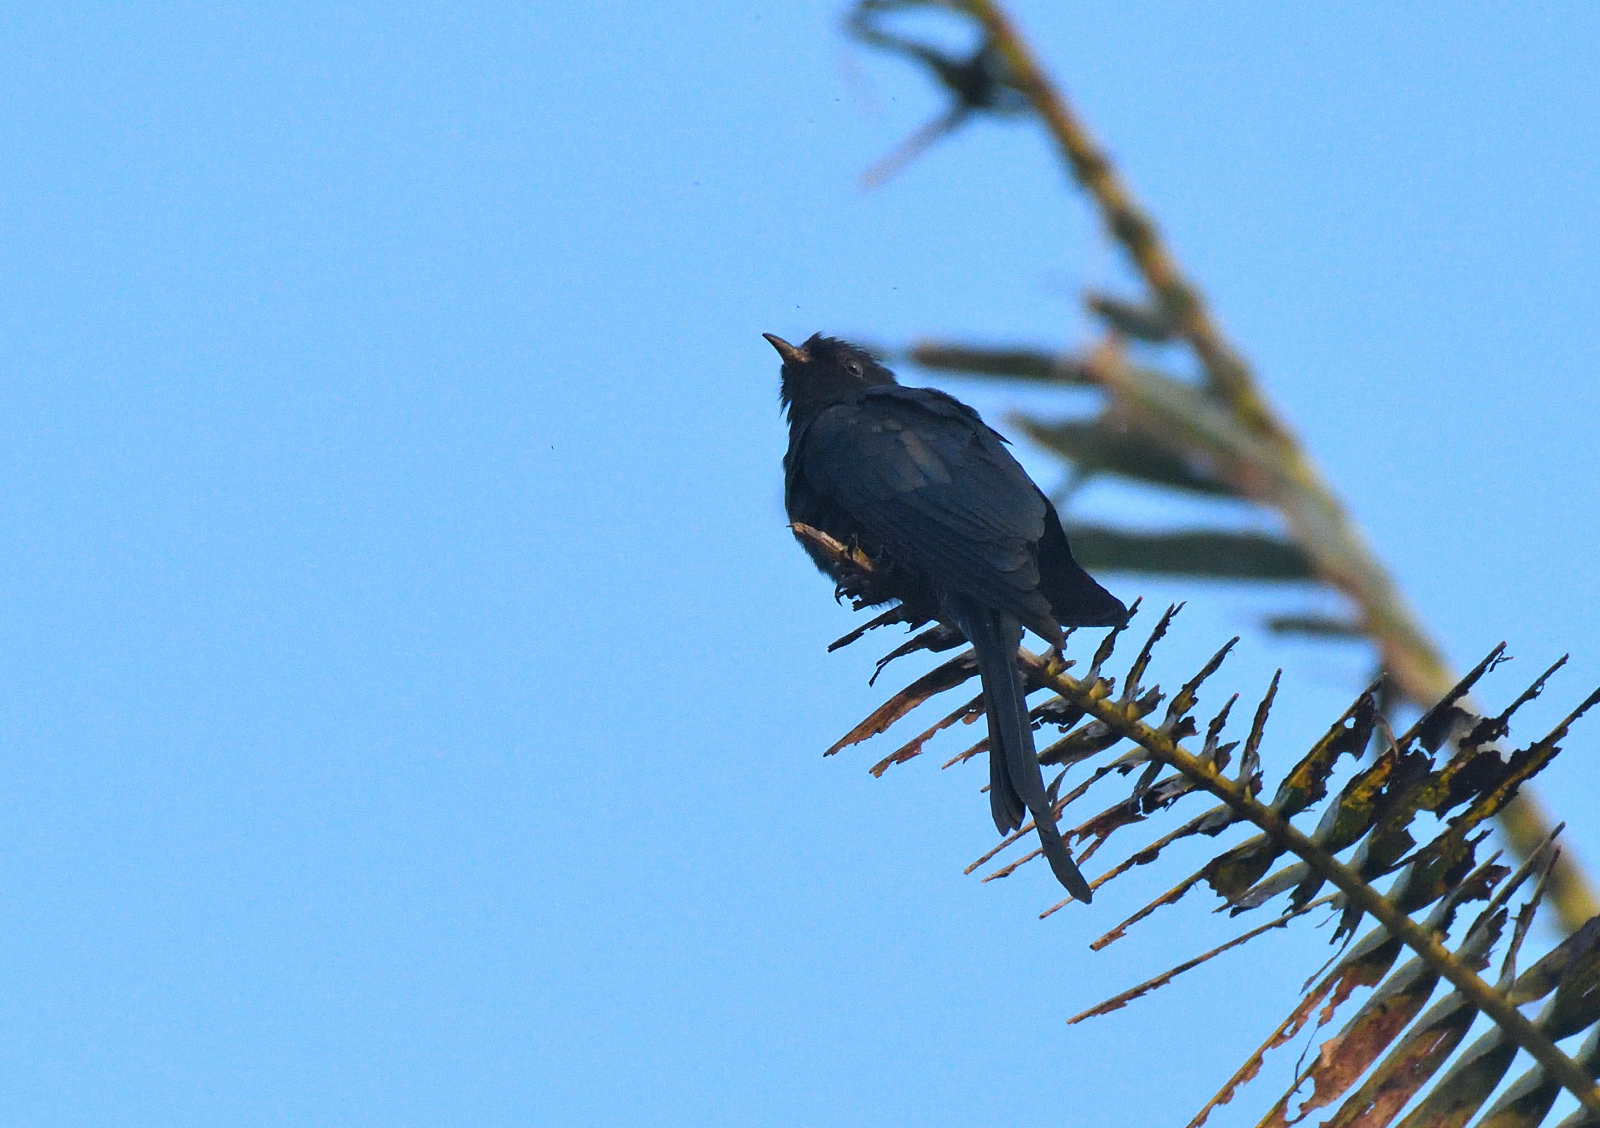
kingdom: Animalia
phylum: Chordata
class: Aves
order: Cuculiformes
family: Cuculidae
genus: Surniculus
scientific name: Surniculus lugubris
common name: Square-tailed drongo-cuckoo
